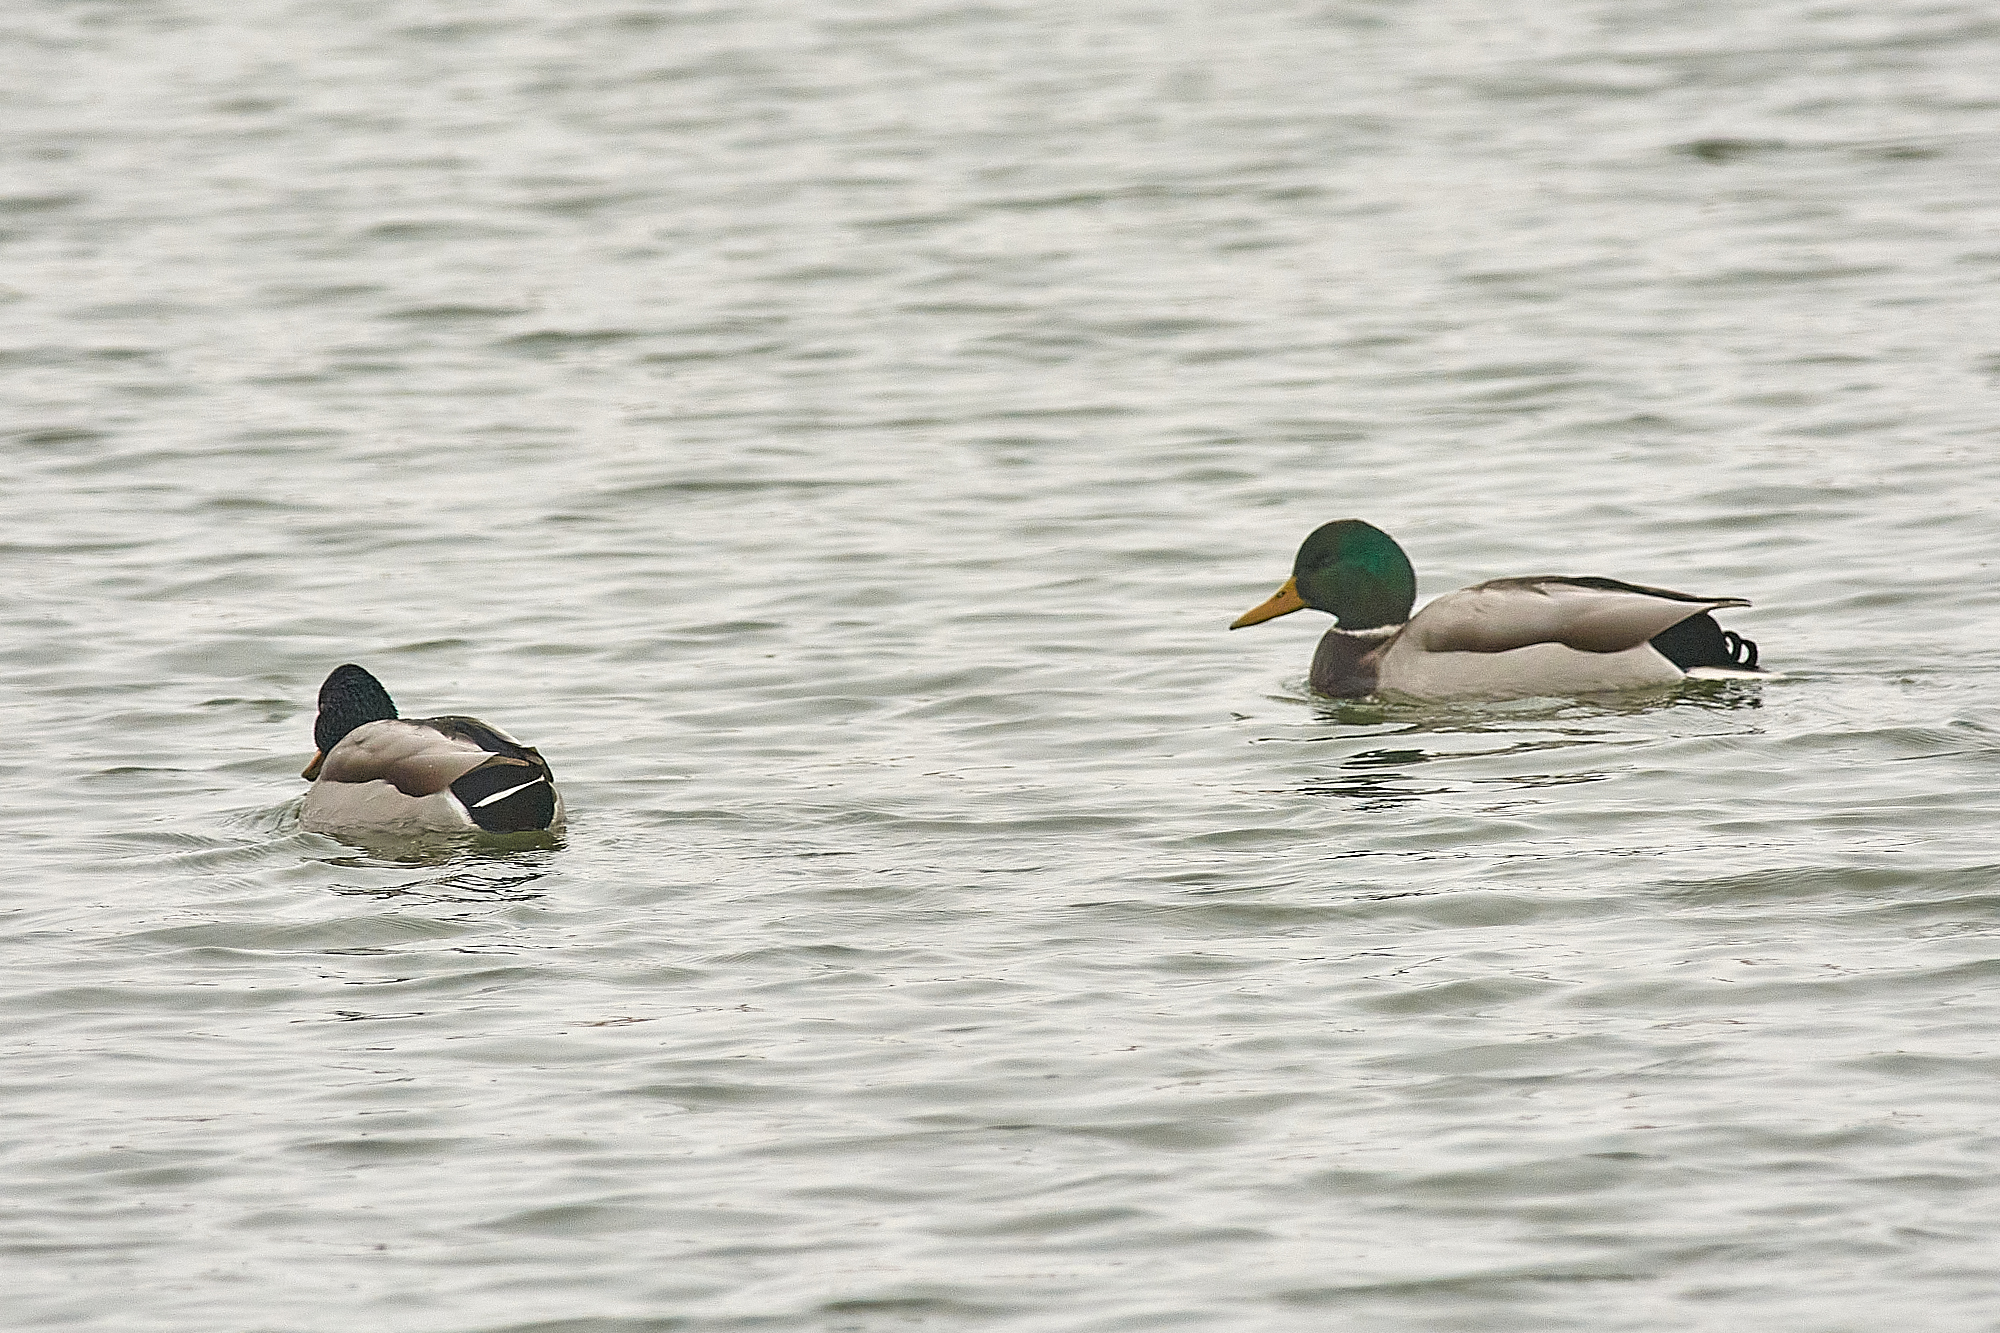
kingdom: Animalia
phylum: Chordata
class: Aves
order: Anseriformes
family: Anatidae
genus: Anas
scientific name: Anas platyrhynchos
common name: Mallard
